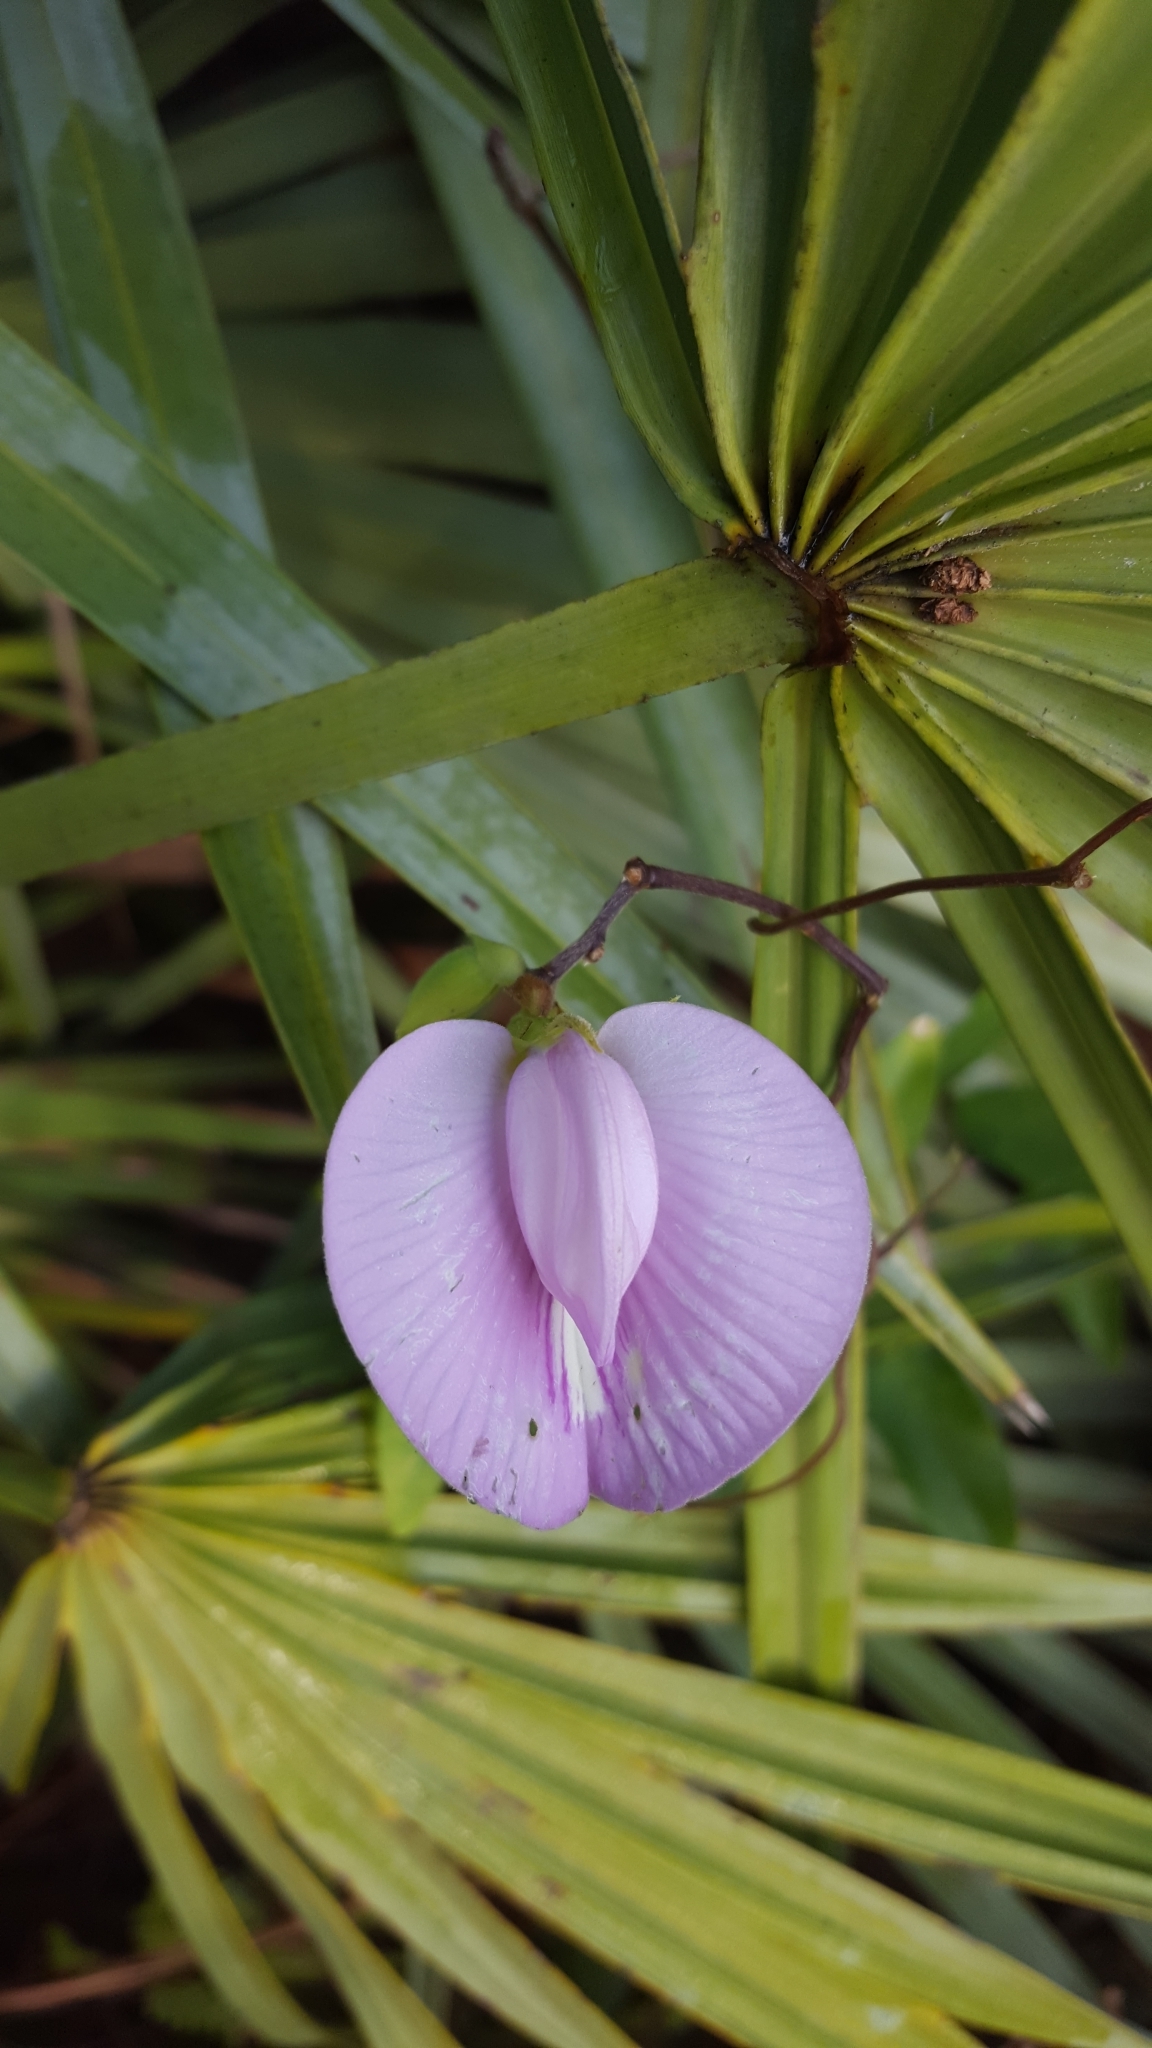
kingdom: Plantae
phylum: Tracheophyta
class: Magnoliopsida
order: Fabales
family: Fabaceae
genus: Centrosema
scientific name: Centrosema virginianum
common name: Butterfly-pea
